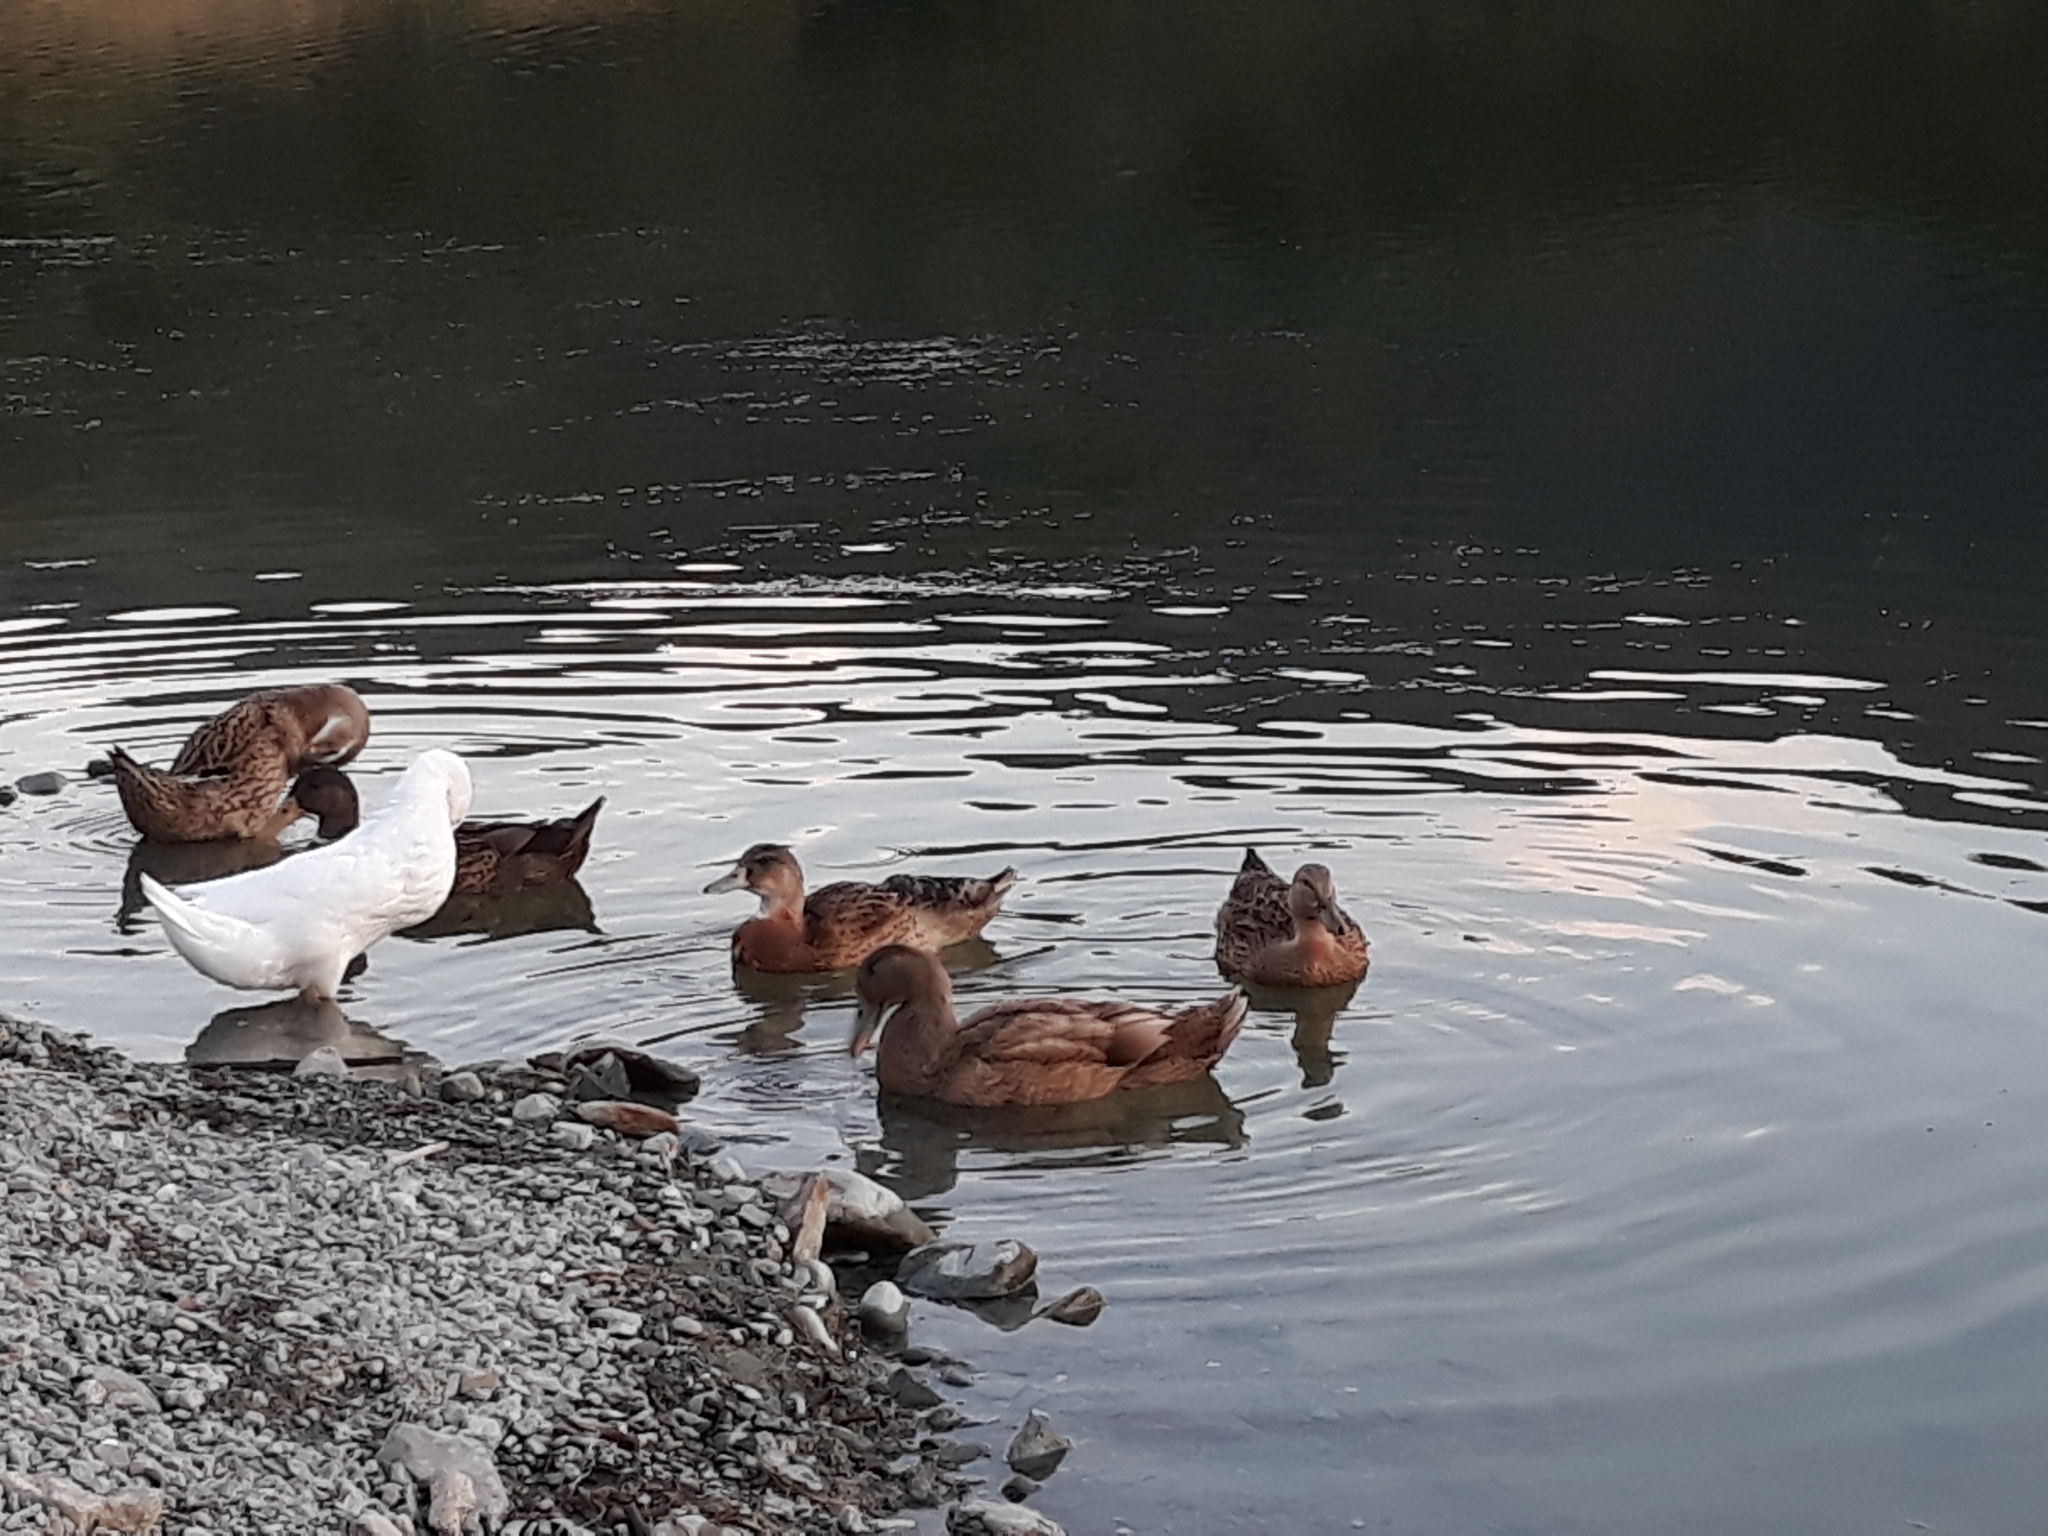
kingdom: Animalia
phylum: Chordata
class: Aves
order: Anseriformes
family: Anatidae
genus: Anas
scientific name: Anas platyrhynchos
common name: Mallard
